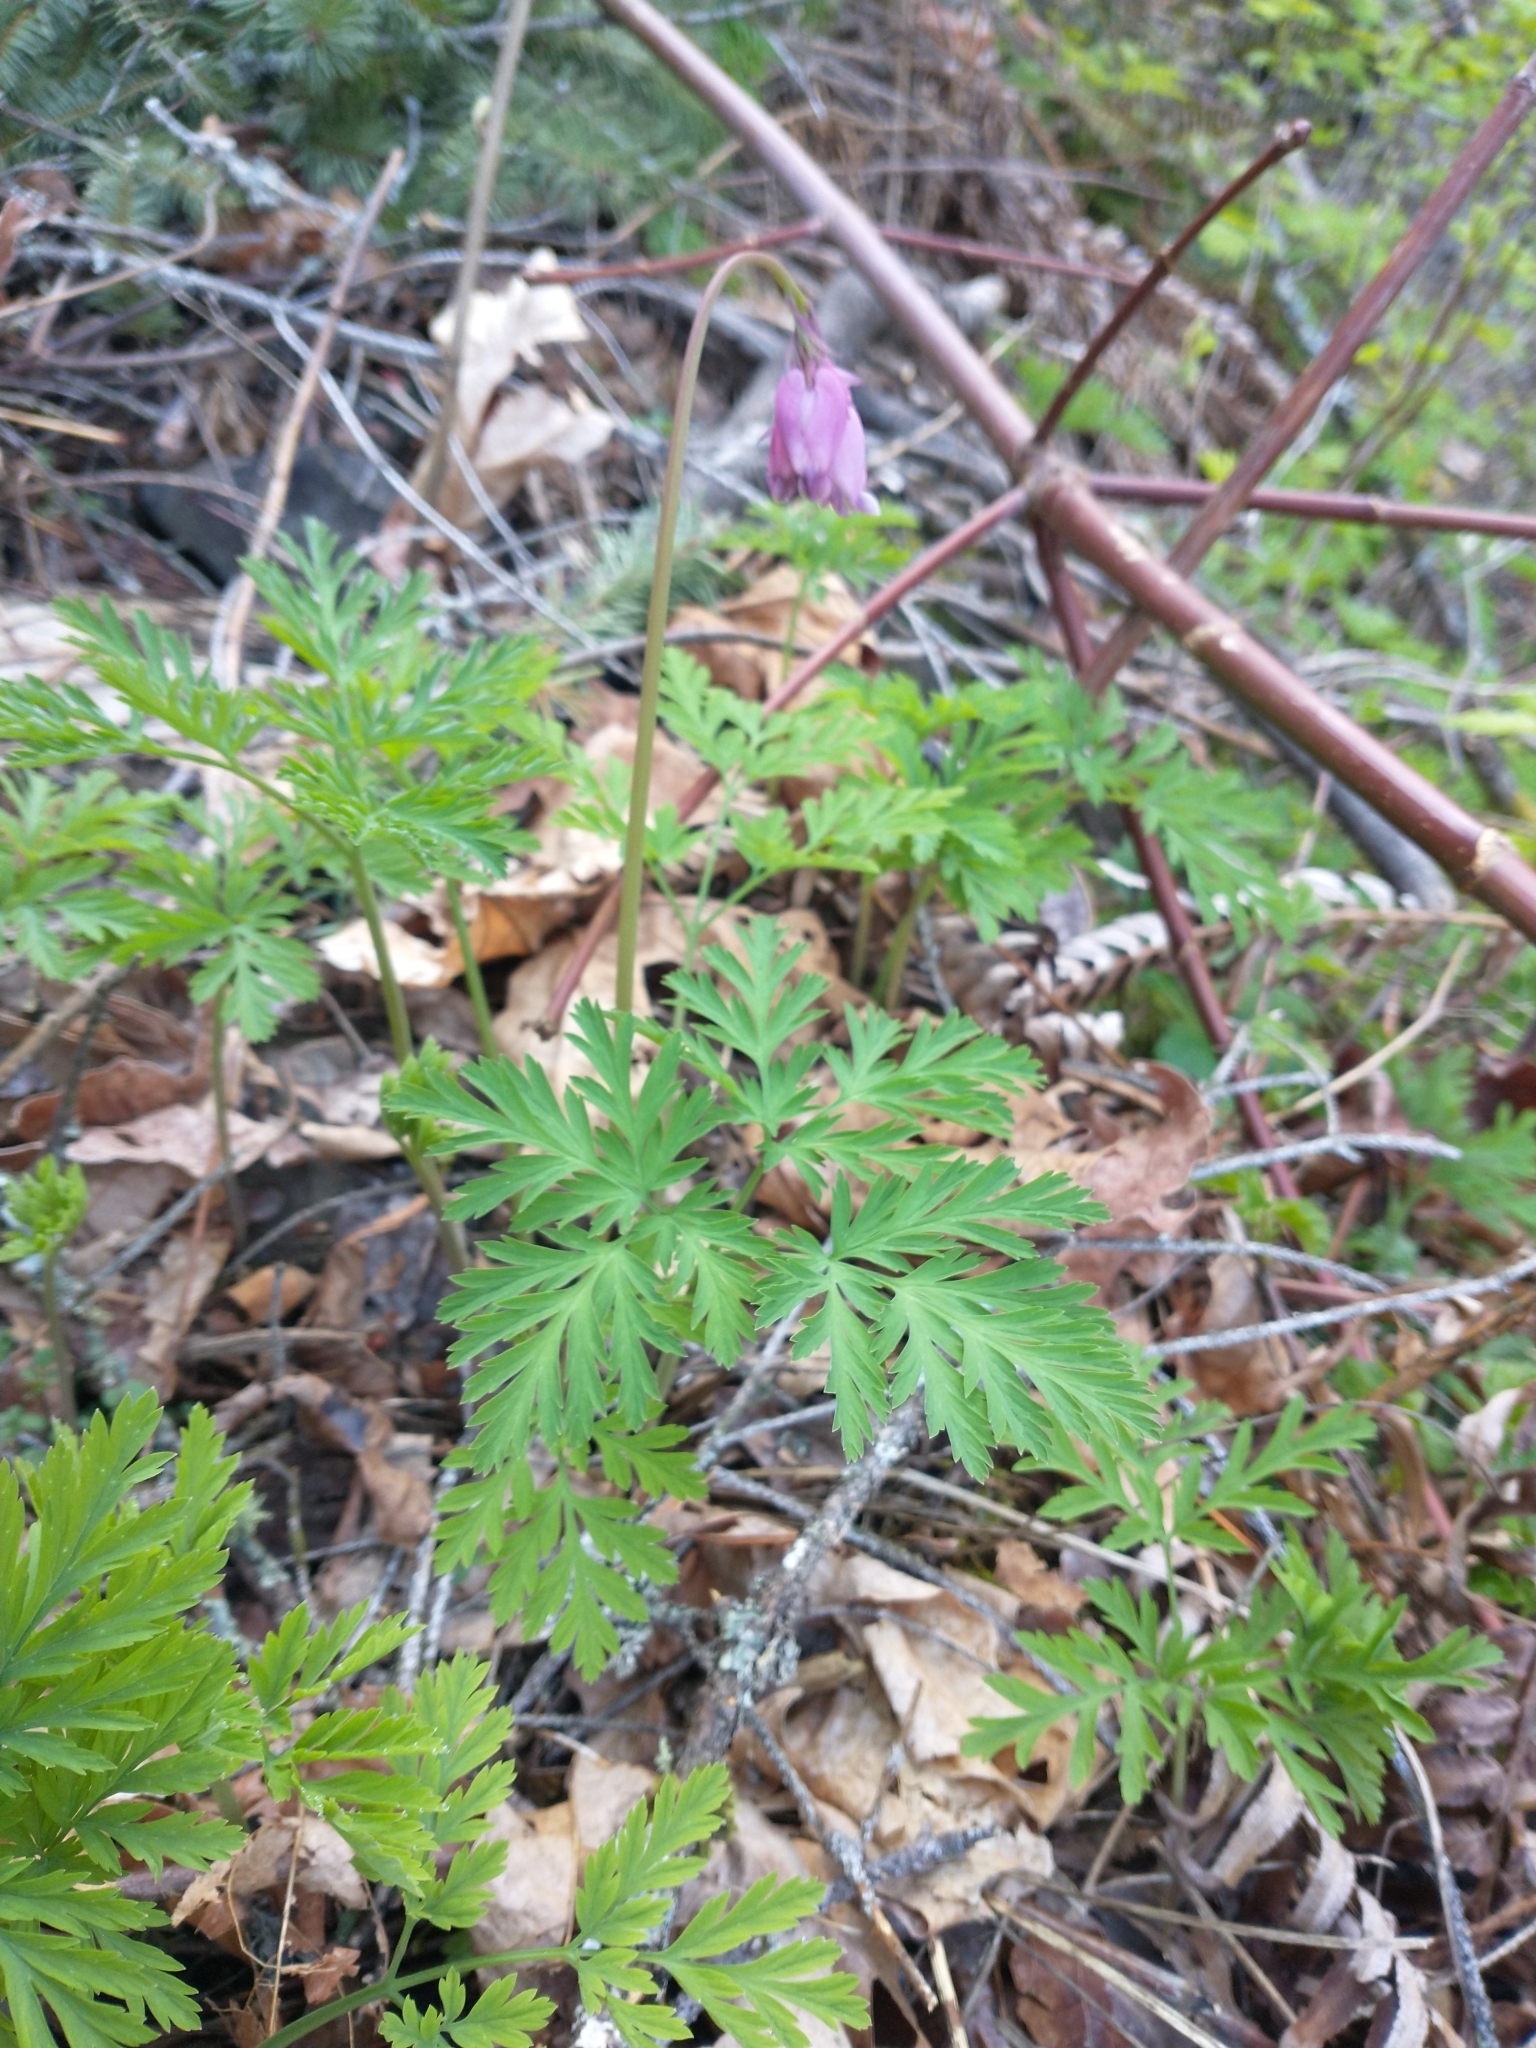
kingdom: Plantae
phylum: Tracheophyta
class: Magnoliopsida
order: Ranunculales
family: Papaveraceae
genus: Dicentra
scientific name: Dicentra formosa
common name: Bleeding-heart
